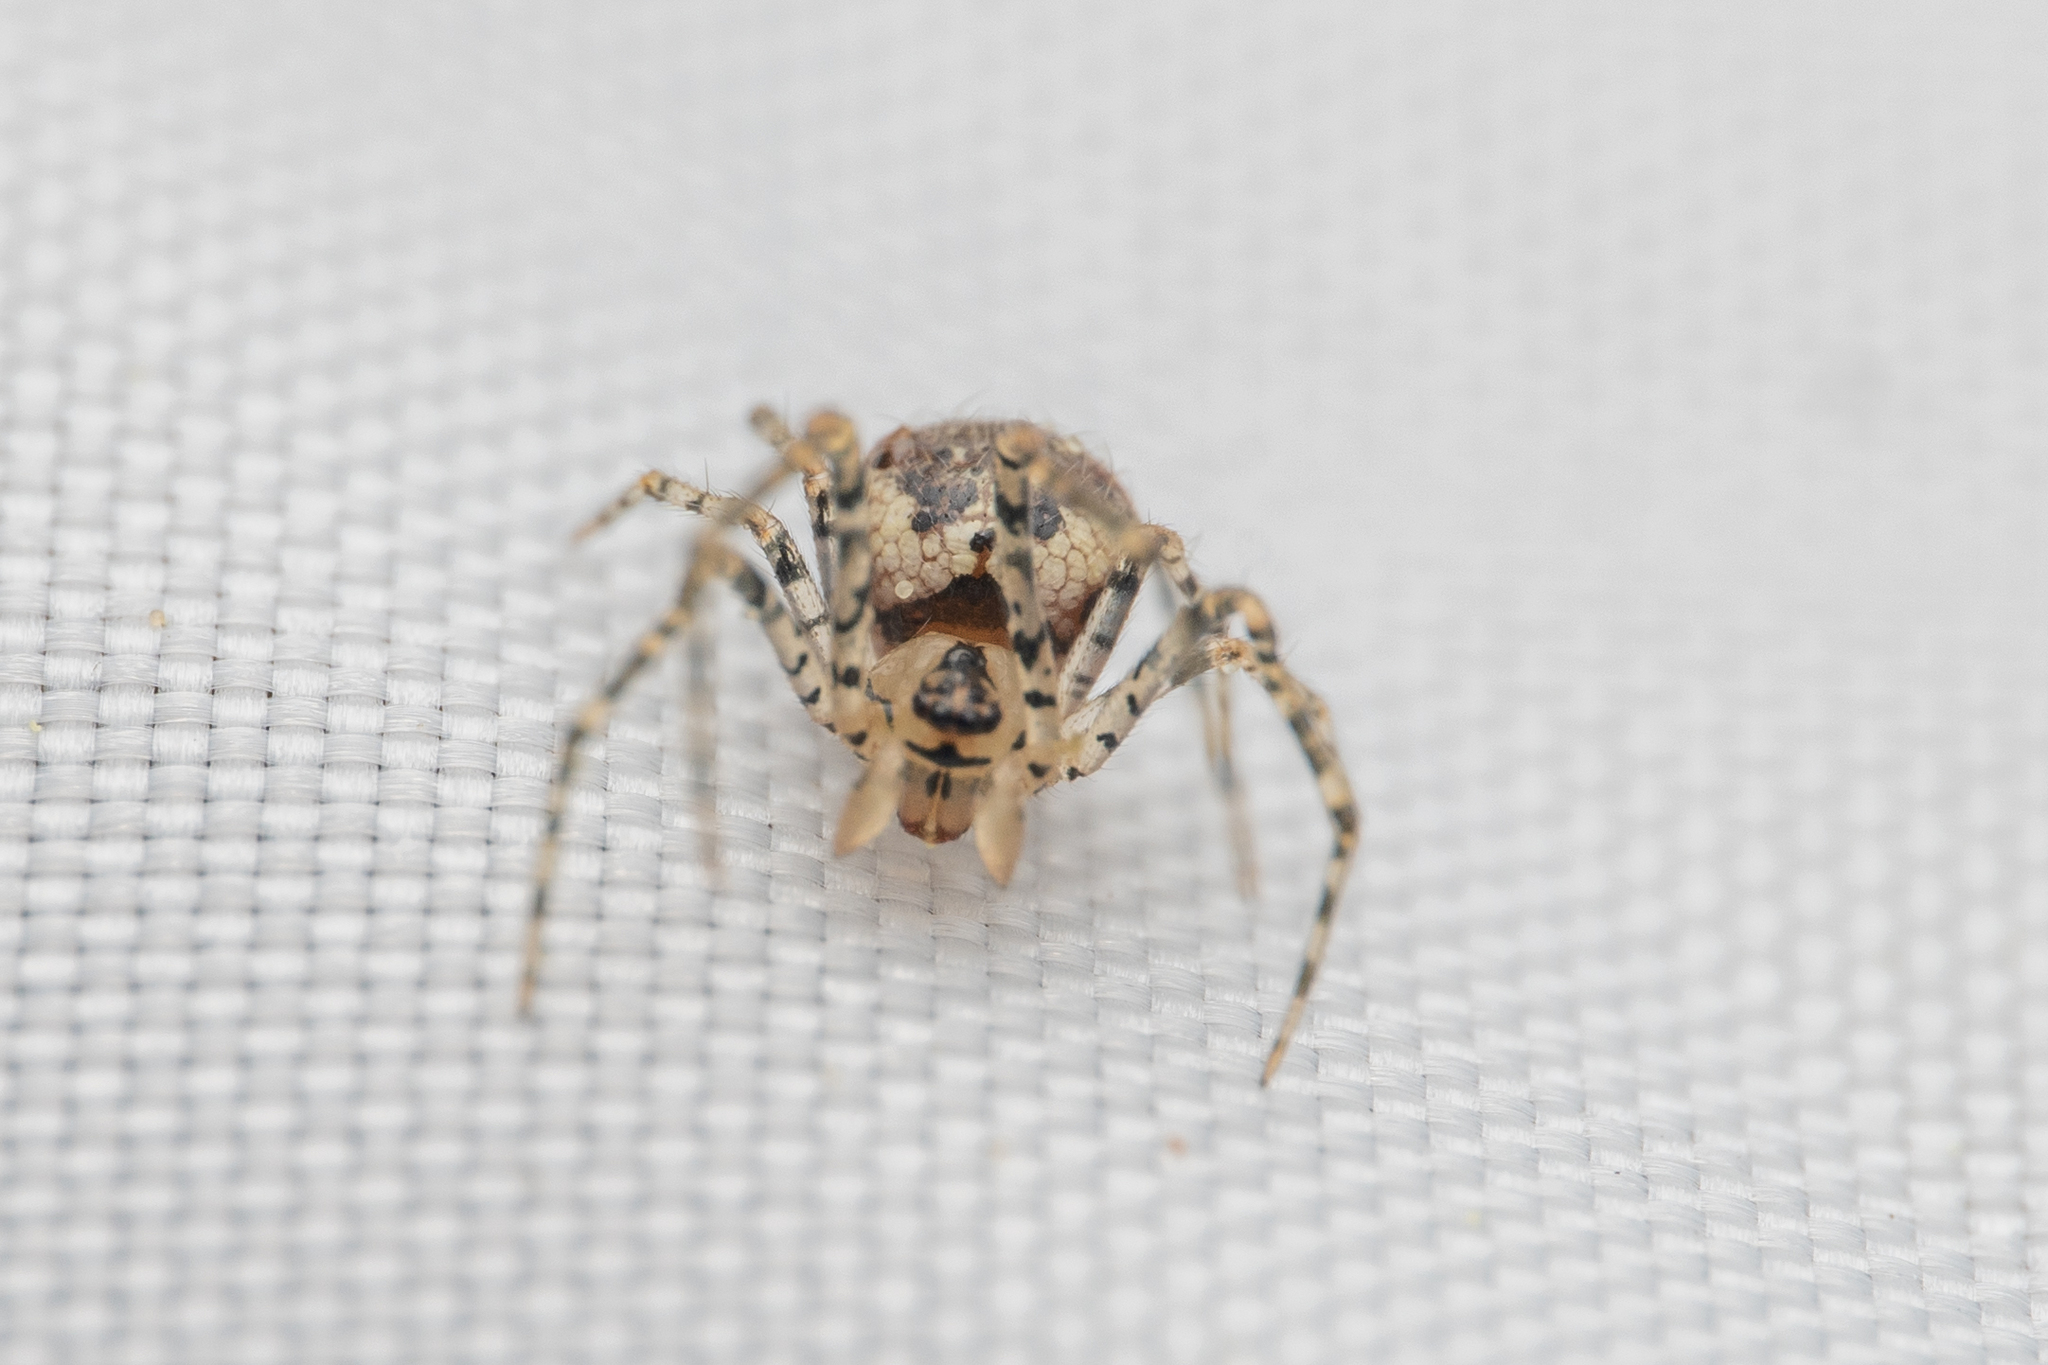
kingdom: Animalia
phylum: Arthropoda
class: Arachnida
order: Araneae
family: Theridiidae
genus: Platnickina
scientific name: Platnickina tincta
